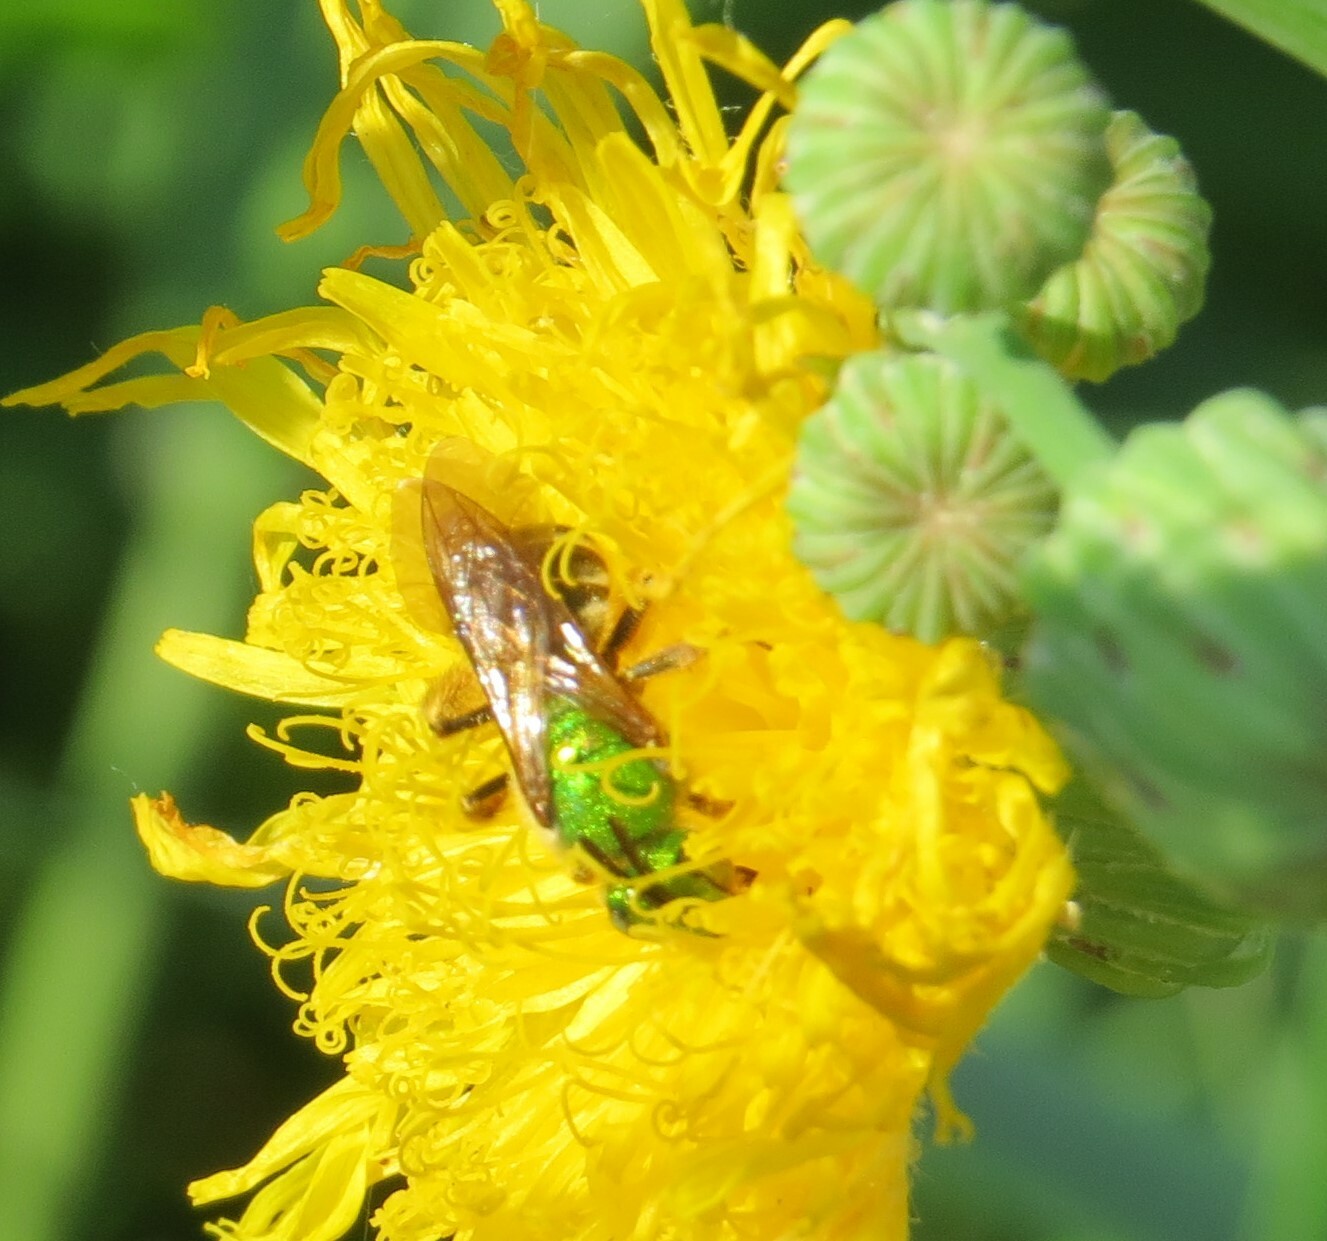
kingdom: Animalia
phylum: Arthropoda
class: Insecta
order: Hymenoptera
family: Halictidae
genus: Agapostemon
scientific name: Agapostemon virescens
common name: Bicolored striped sweat bee
